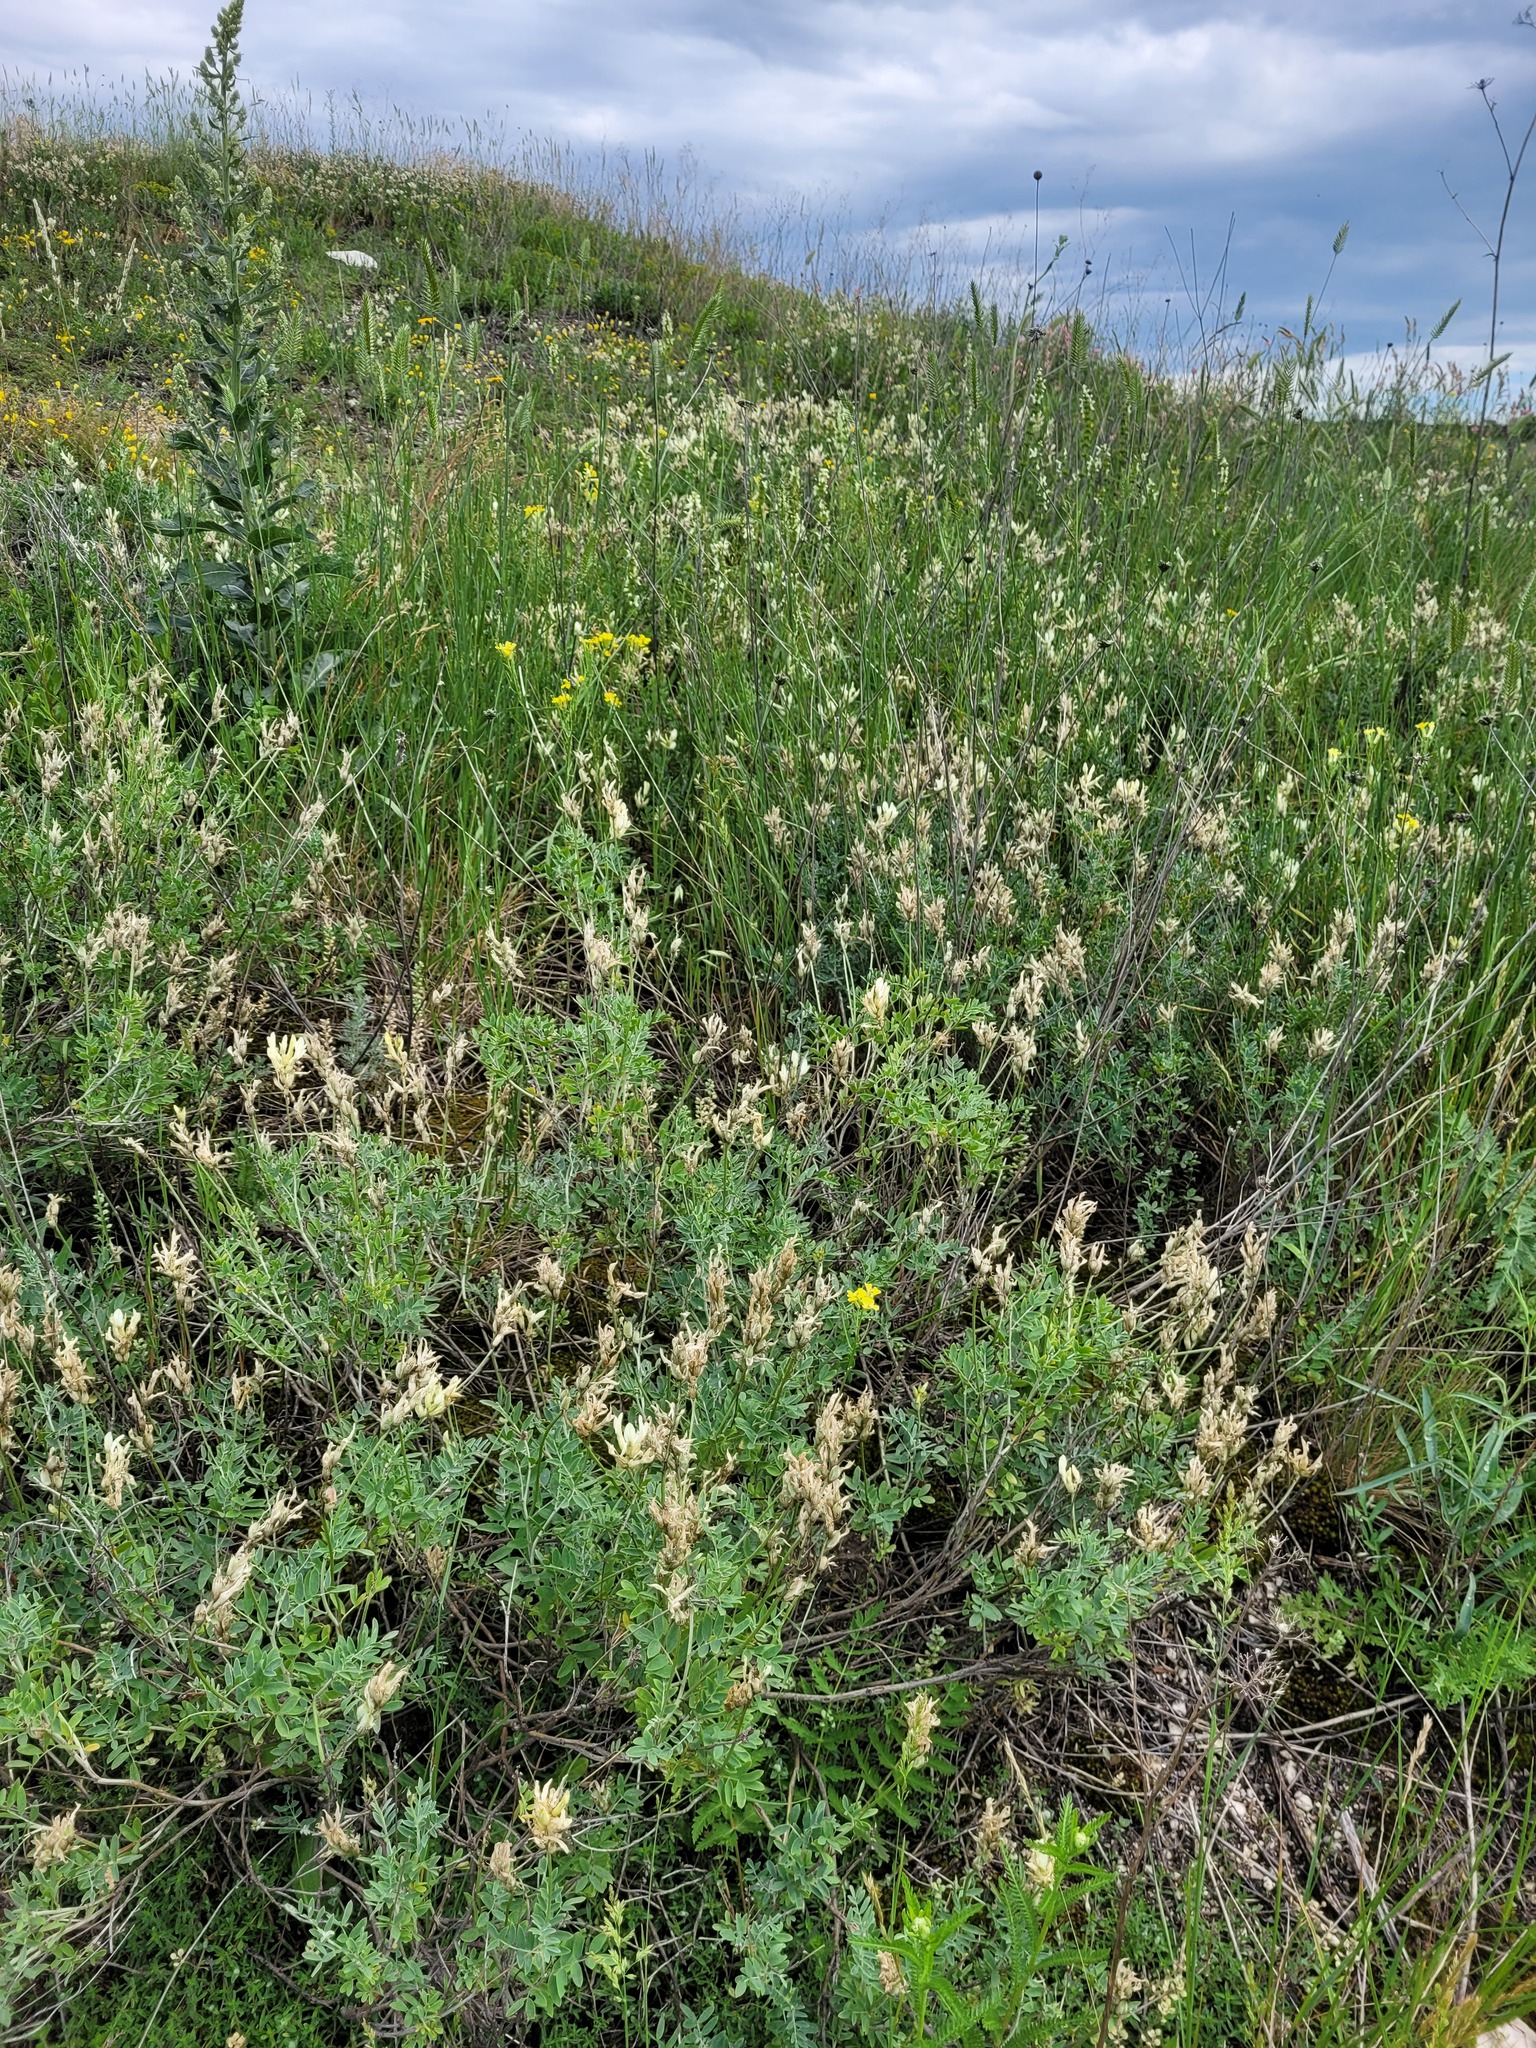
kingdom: Plantae
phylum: Tracheophyta
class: Magnoliopsida
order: Fabales
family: Fabaceae
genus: Astragalus
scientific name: Astragalus albicaulis
